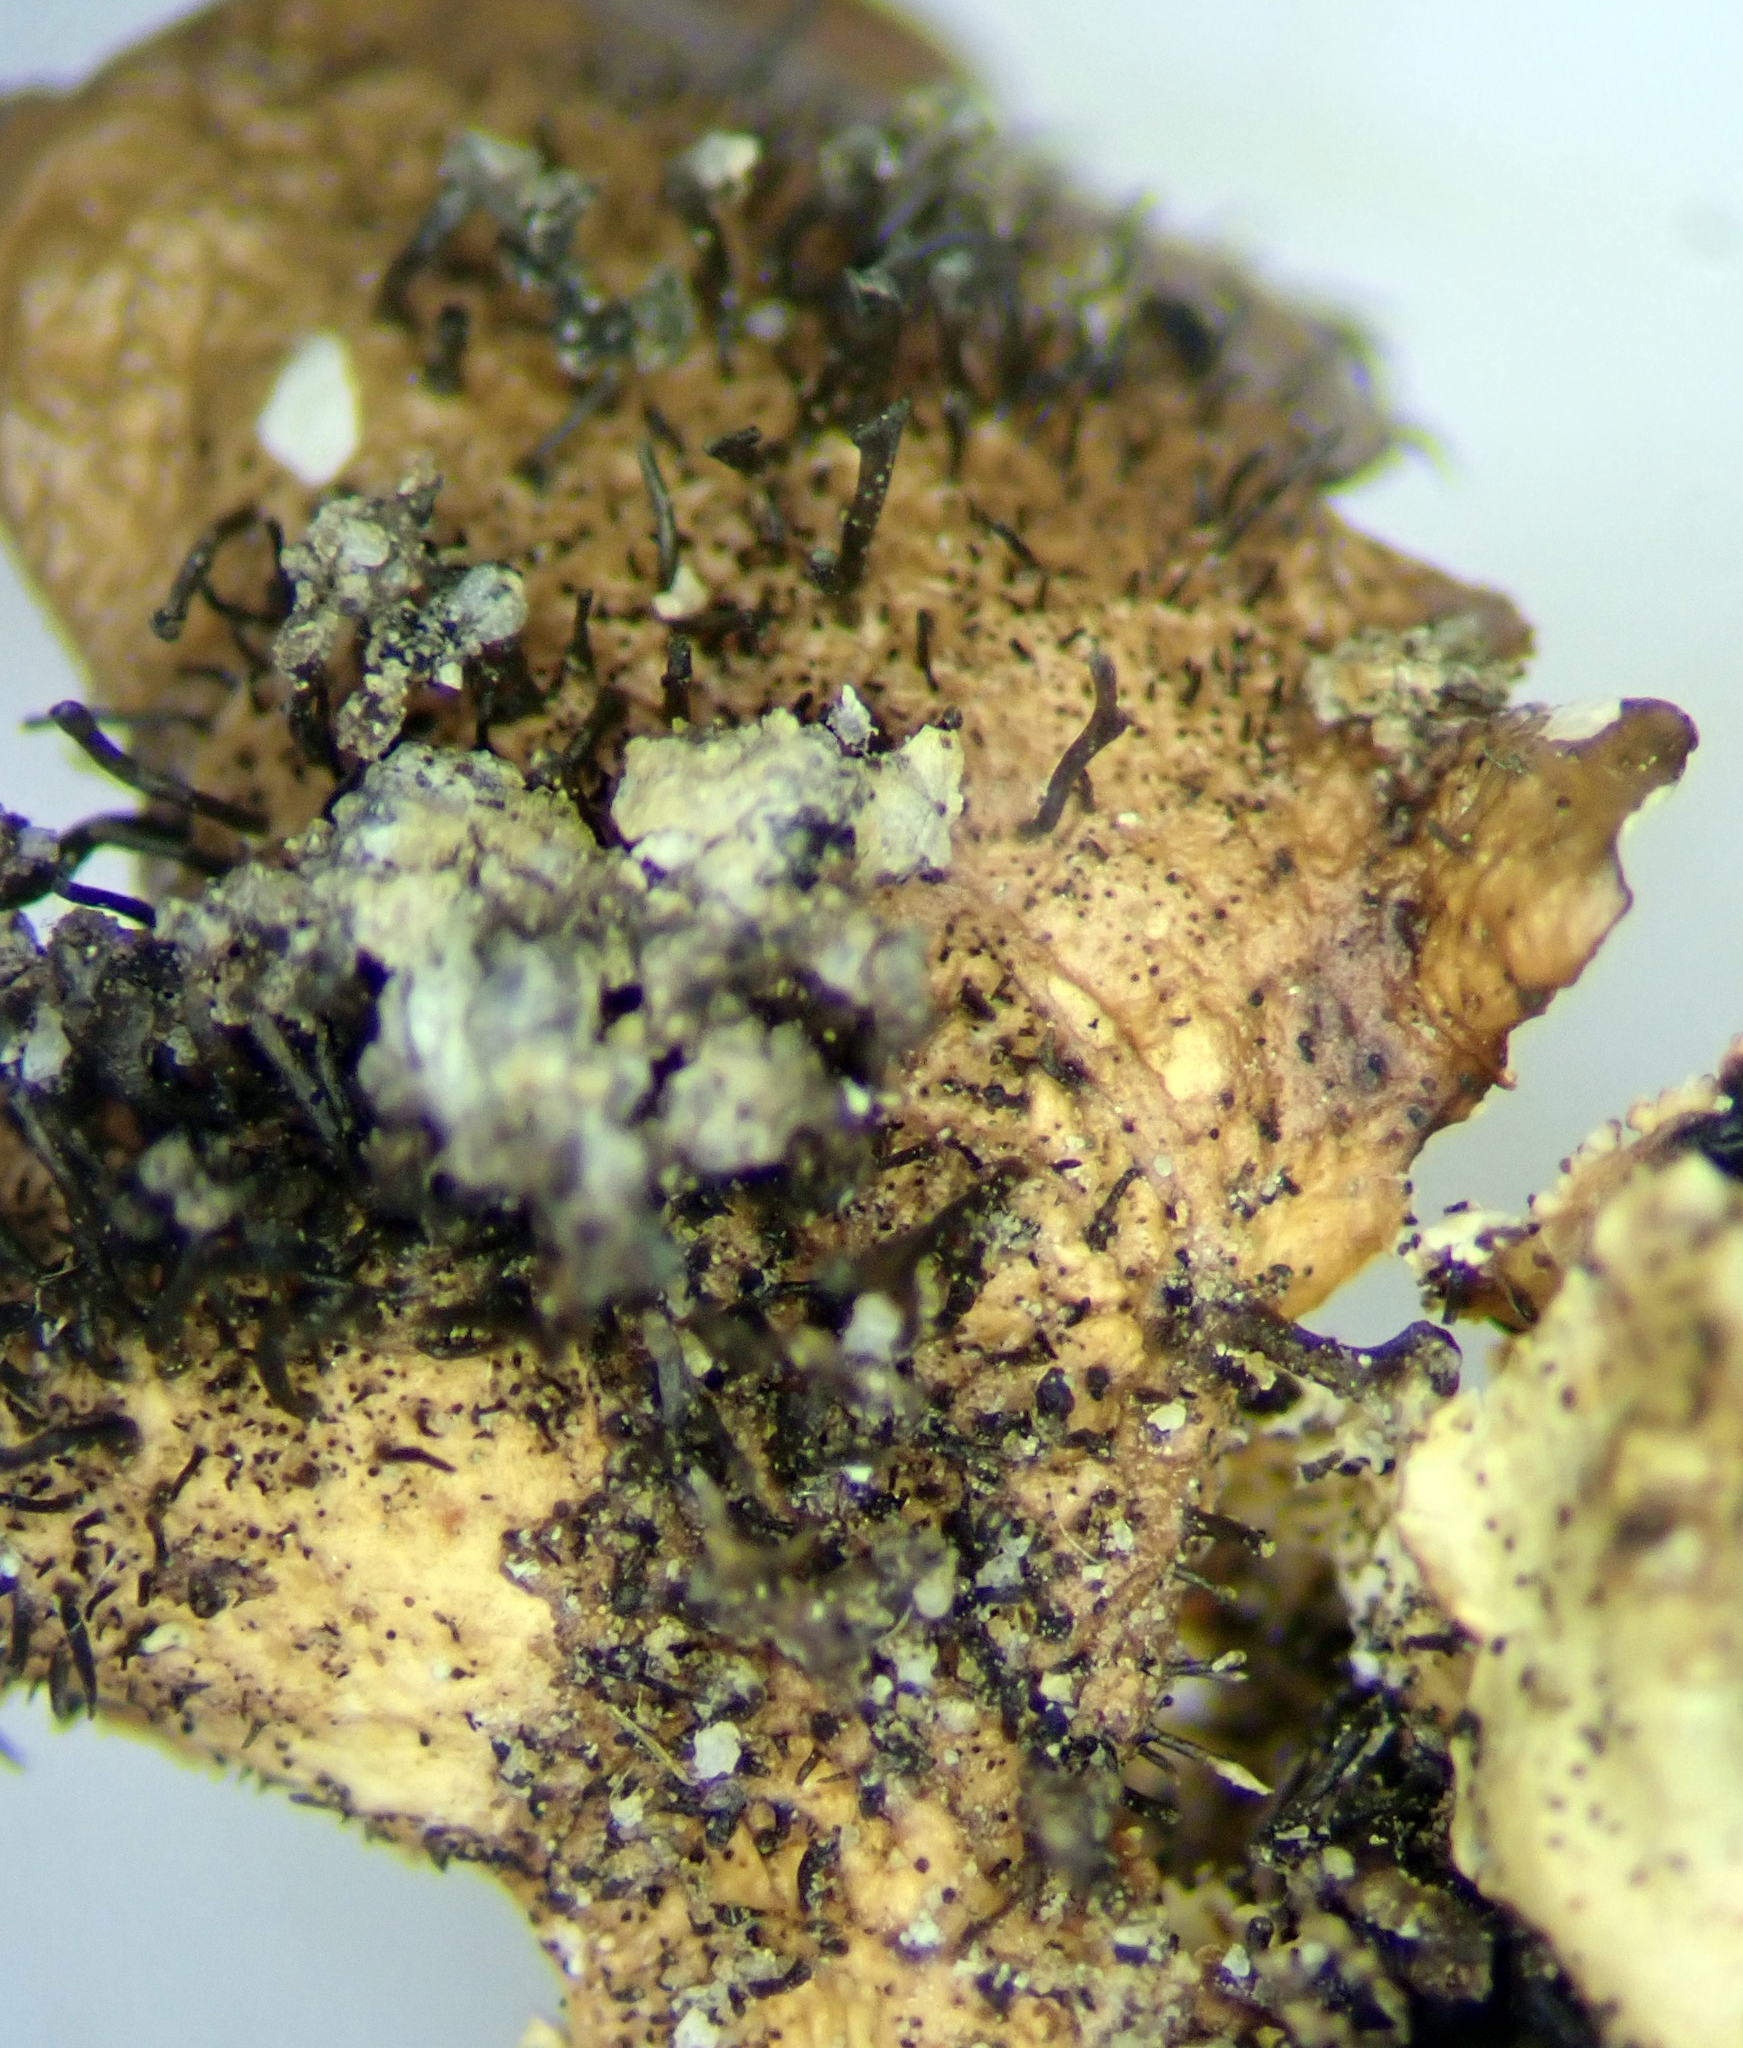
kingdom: Fungi
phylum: Ascomycota
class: Lecanoromycetes
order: Lecanorales
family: Parmeliaceae
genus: Parmotrema
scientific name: Parmotrema subtinctorium
